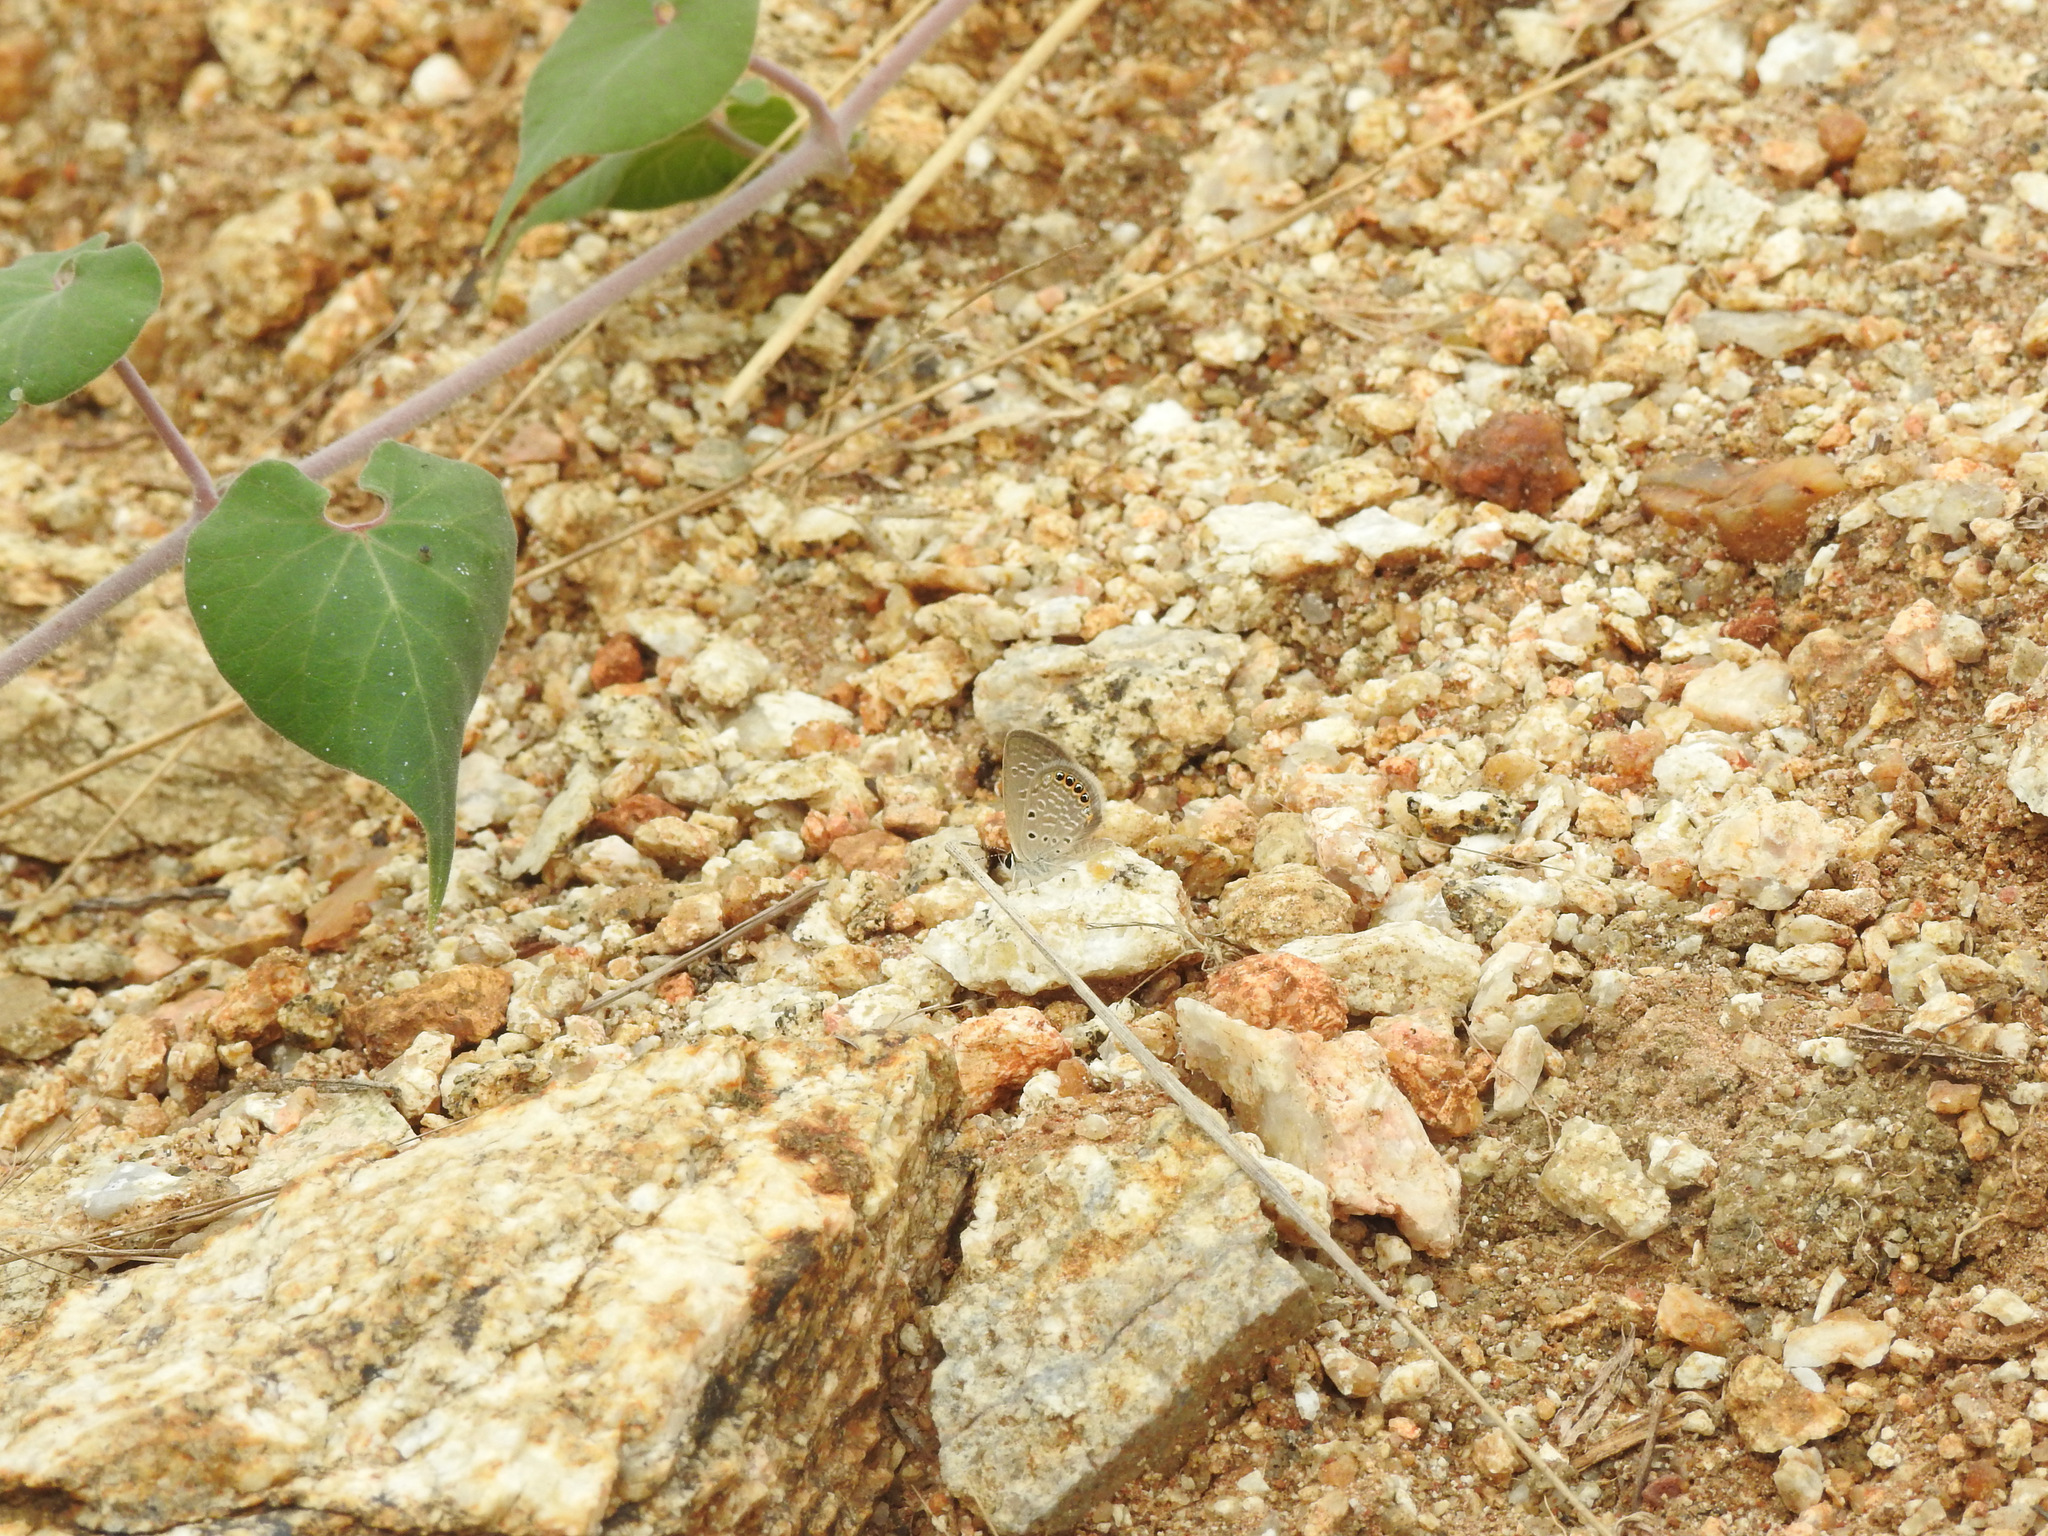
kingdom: Animalia
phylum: Arthropoda
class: Insecta
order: Lepidoptera
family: Lycaenidae
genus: Freyeria
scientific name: Freyeria putli
